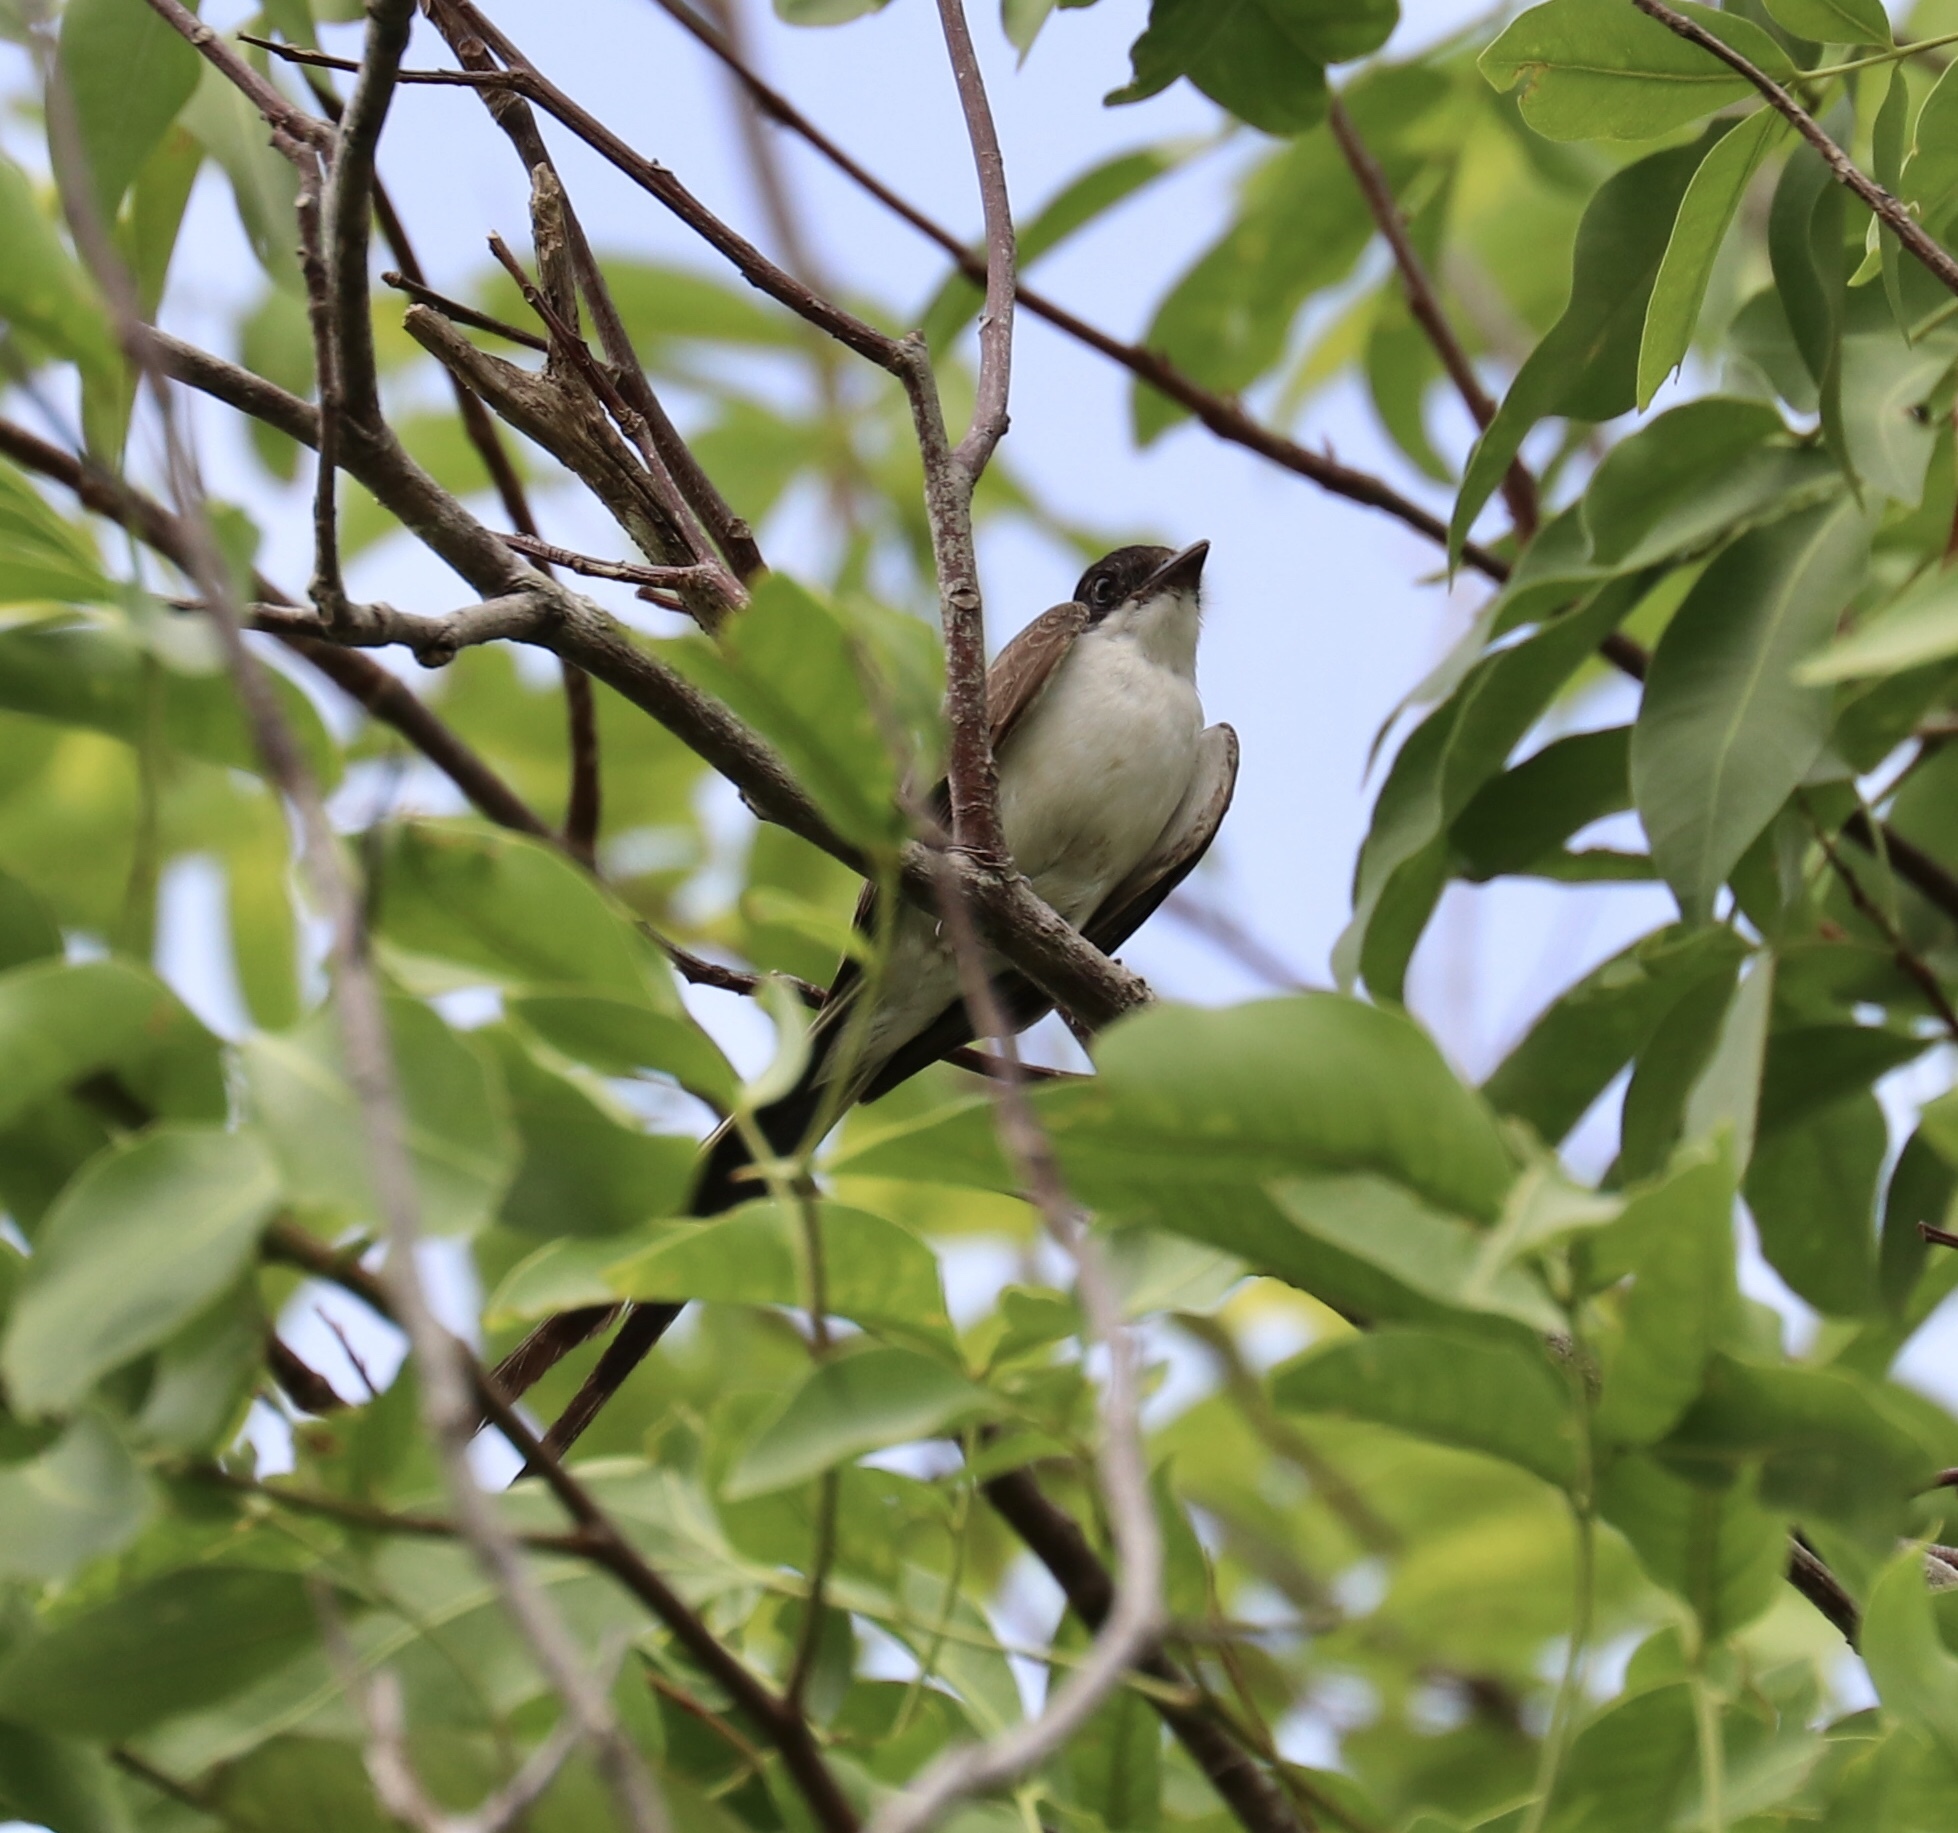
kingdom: Animalia
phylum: Chordata
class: Aves
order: Passeriformes
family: Tyrannidae
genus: Tyrannus
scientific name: Tyrannus savana
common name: Fork-tailed flycatcher
